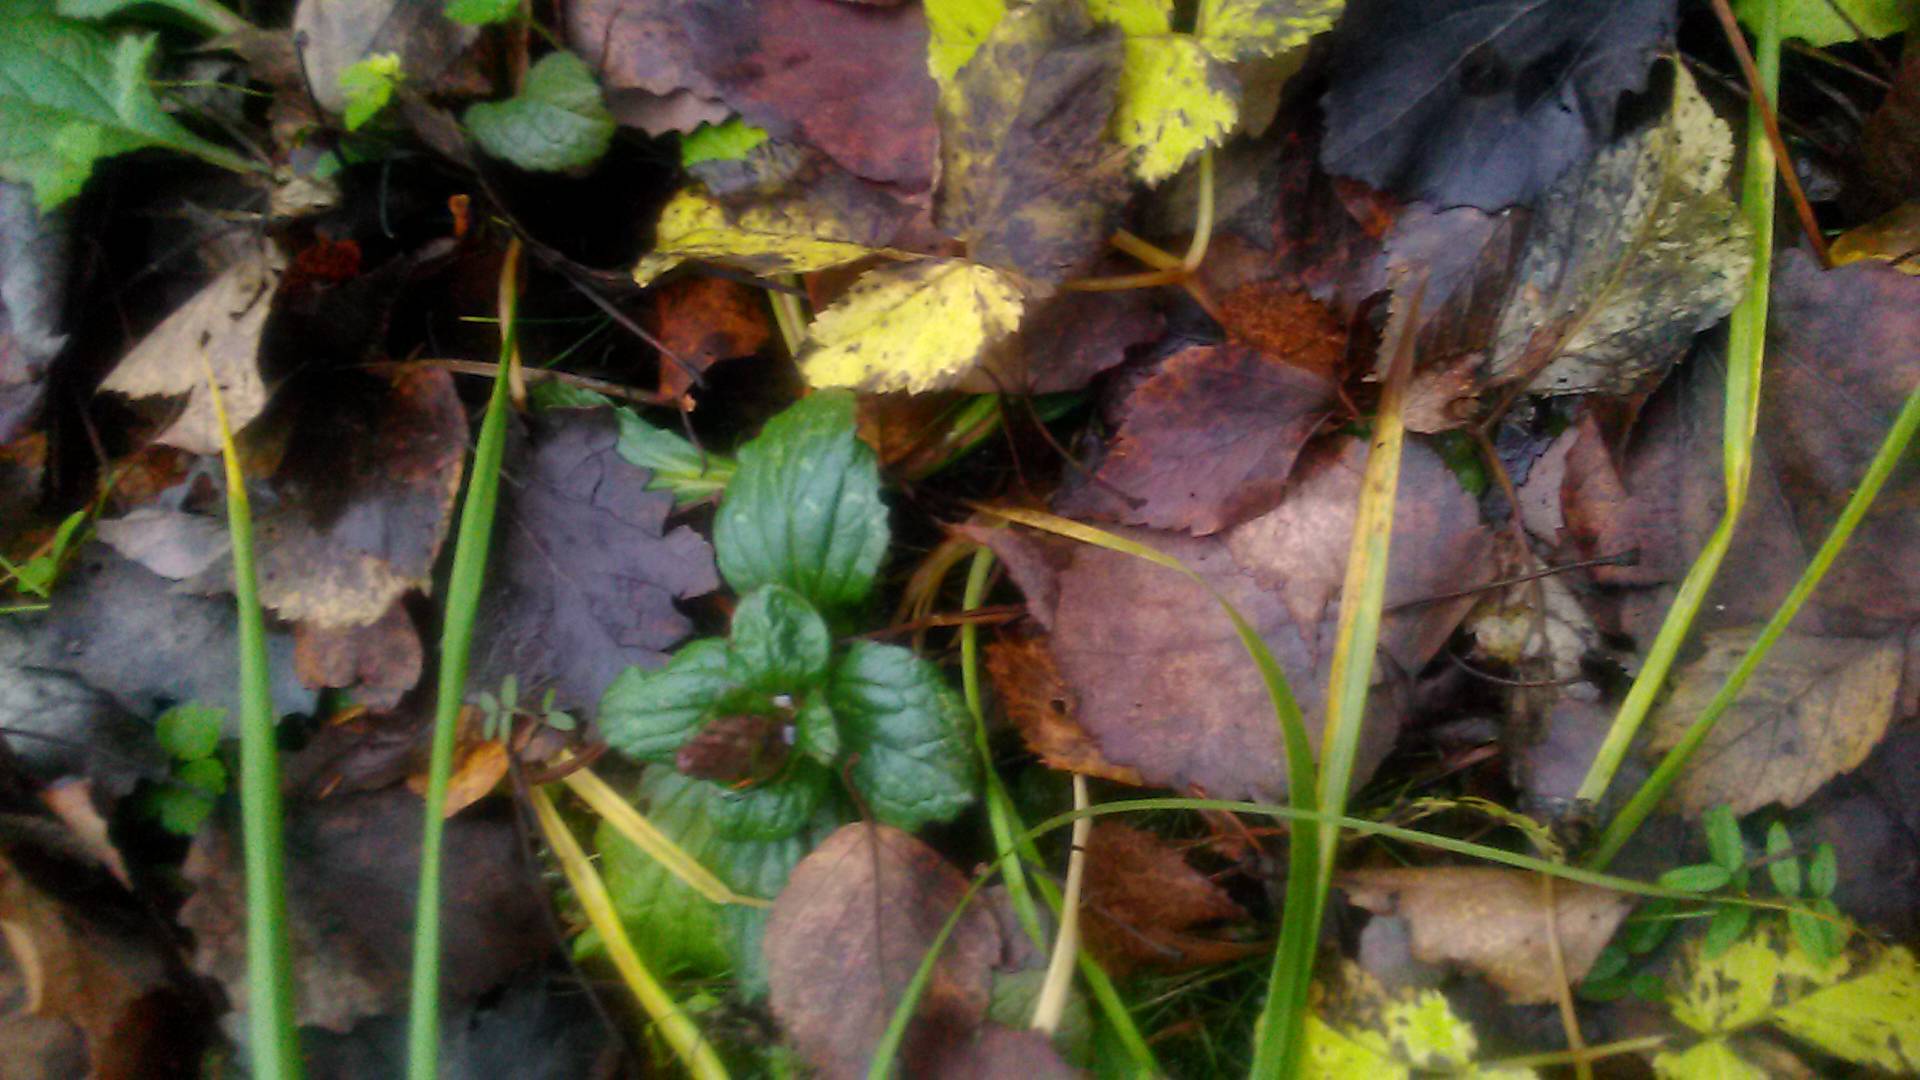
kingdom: Plantae
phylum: Tracheophyta
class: Magnoliopsida
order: Lamiales
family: Lamiaceae
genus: Ajuga
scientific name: Ajuga reptans
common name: Bugle
